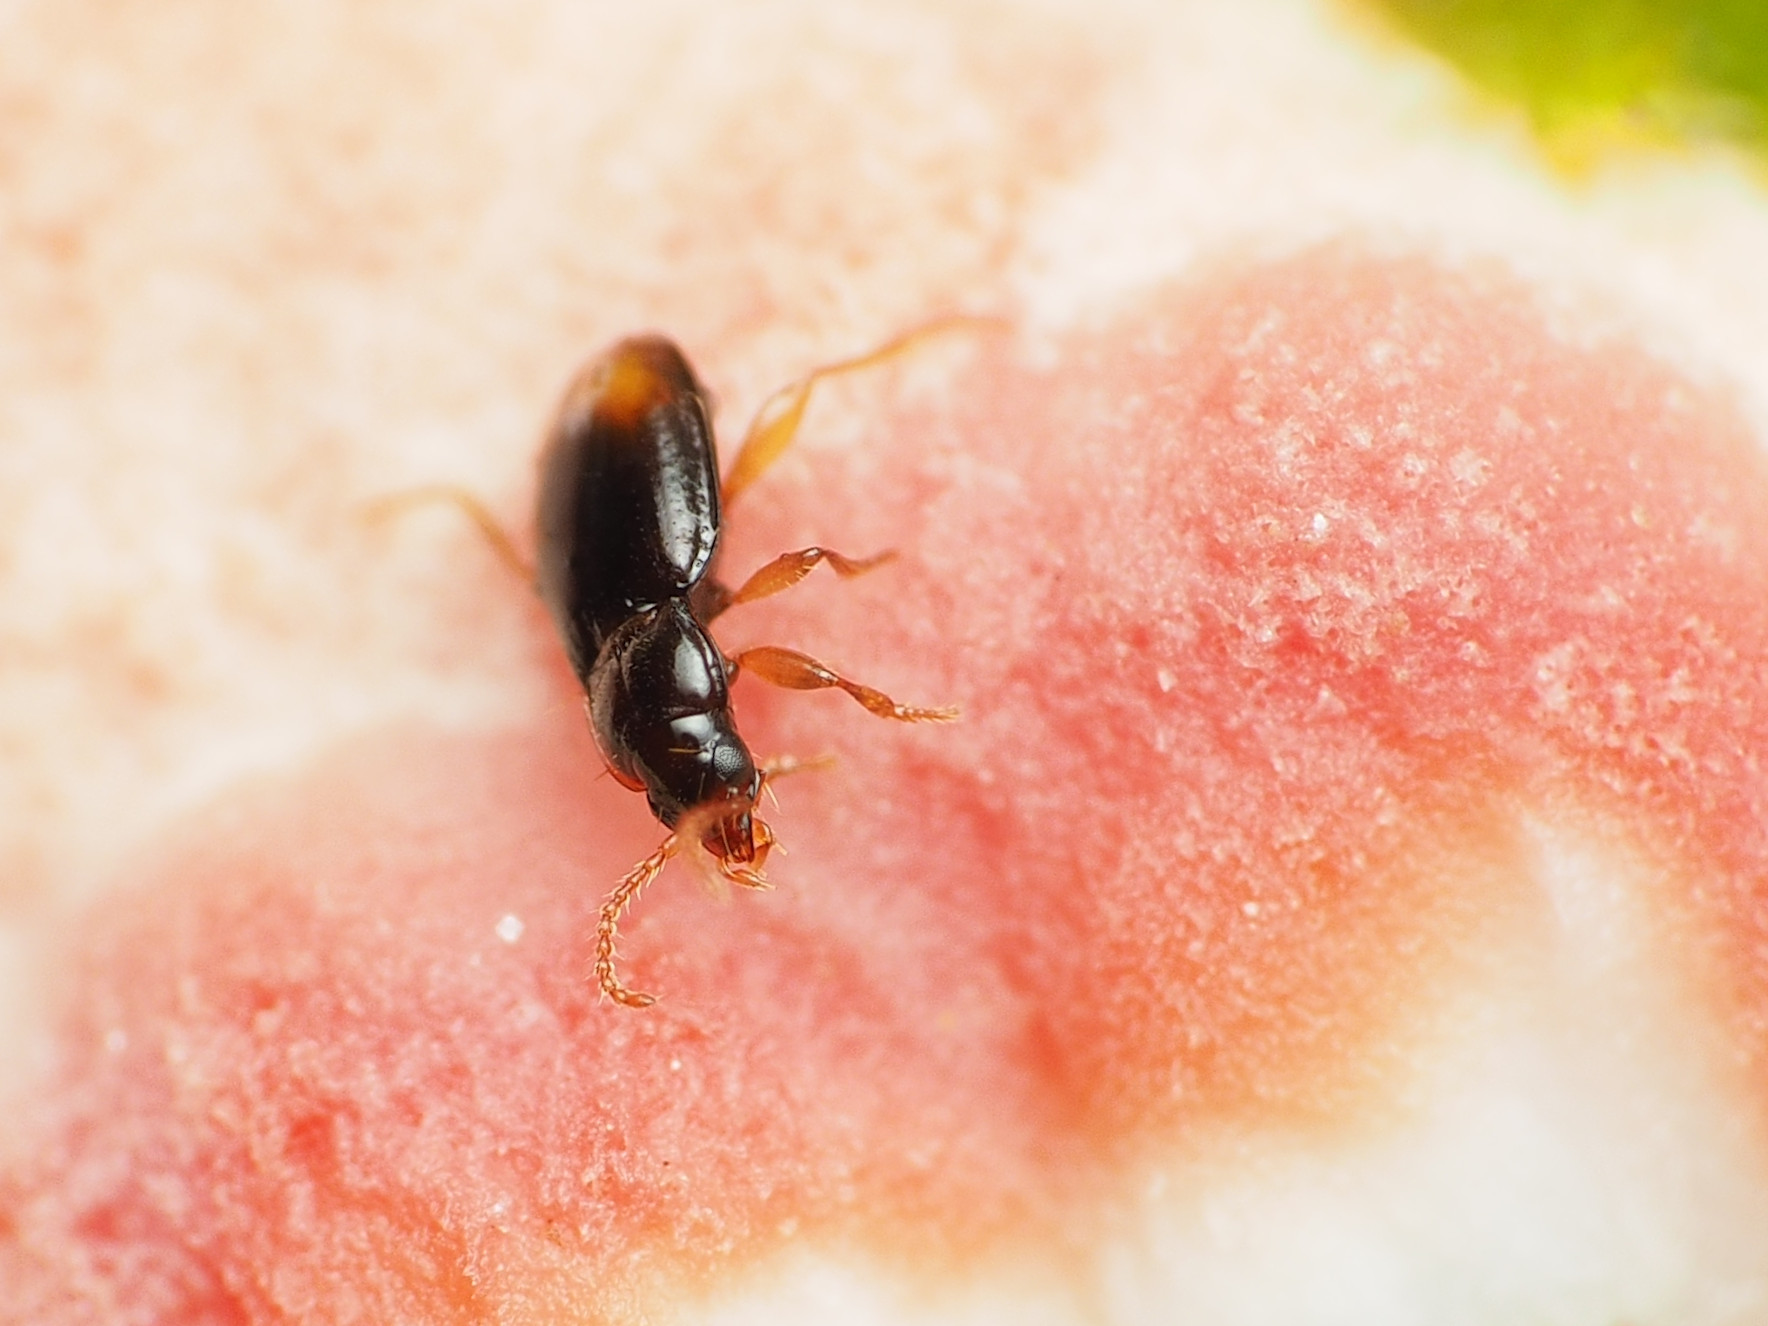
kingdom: Animalia
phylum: Arthropoda
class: Insecta
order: Coleoptera
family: Carabidae
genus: Mioptachys
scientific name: Mioptachys flavicauda
